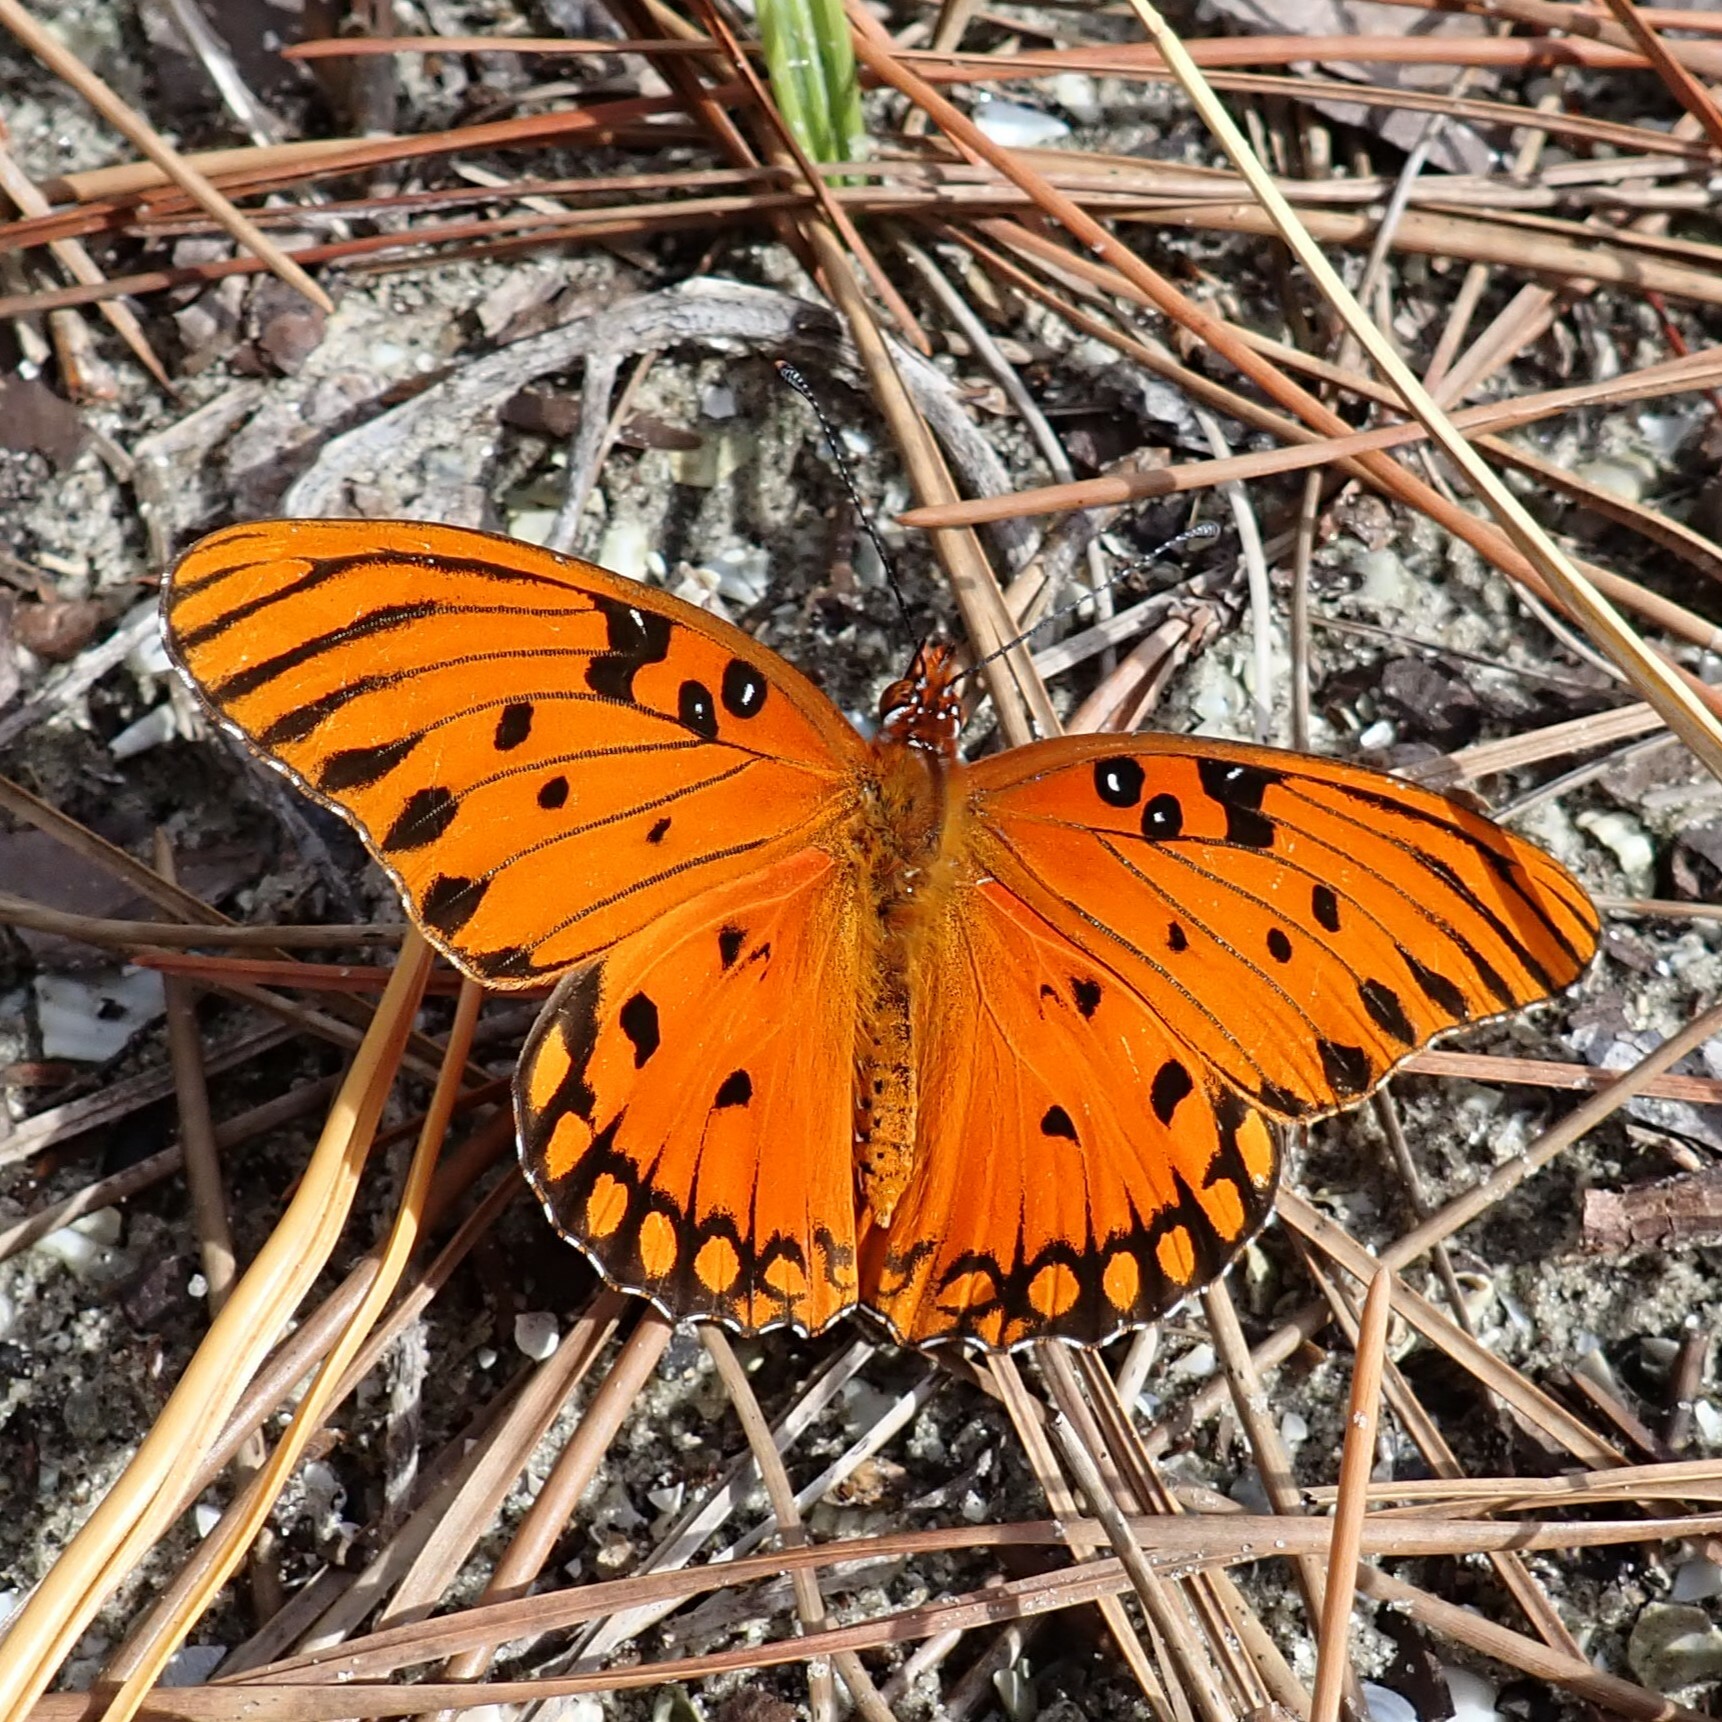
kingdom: Animalia
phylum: Arthropoda
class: Insecta
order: Lepidoptera
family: Nymphalidae
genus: Dione
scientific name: Dione vanillae
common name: Gulf fritillary
